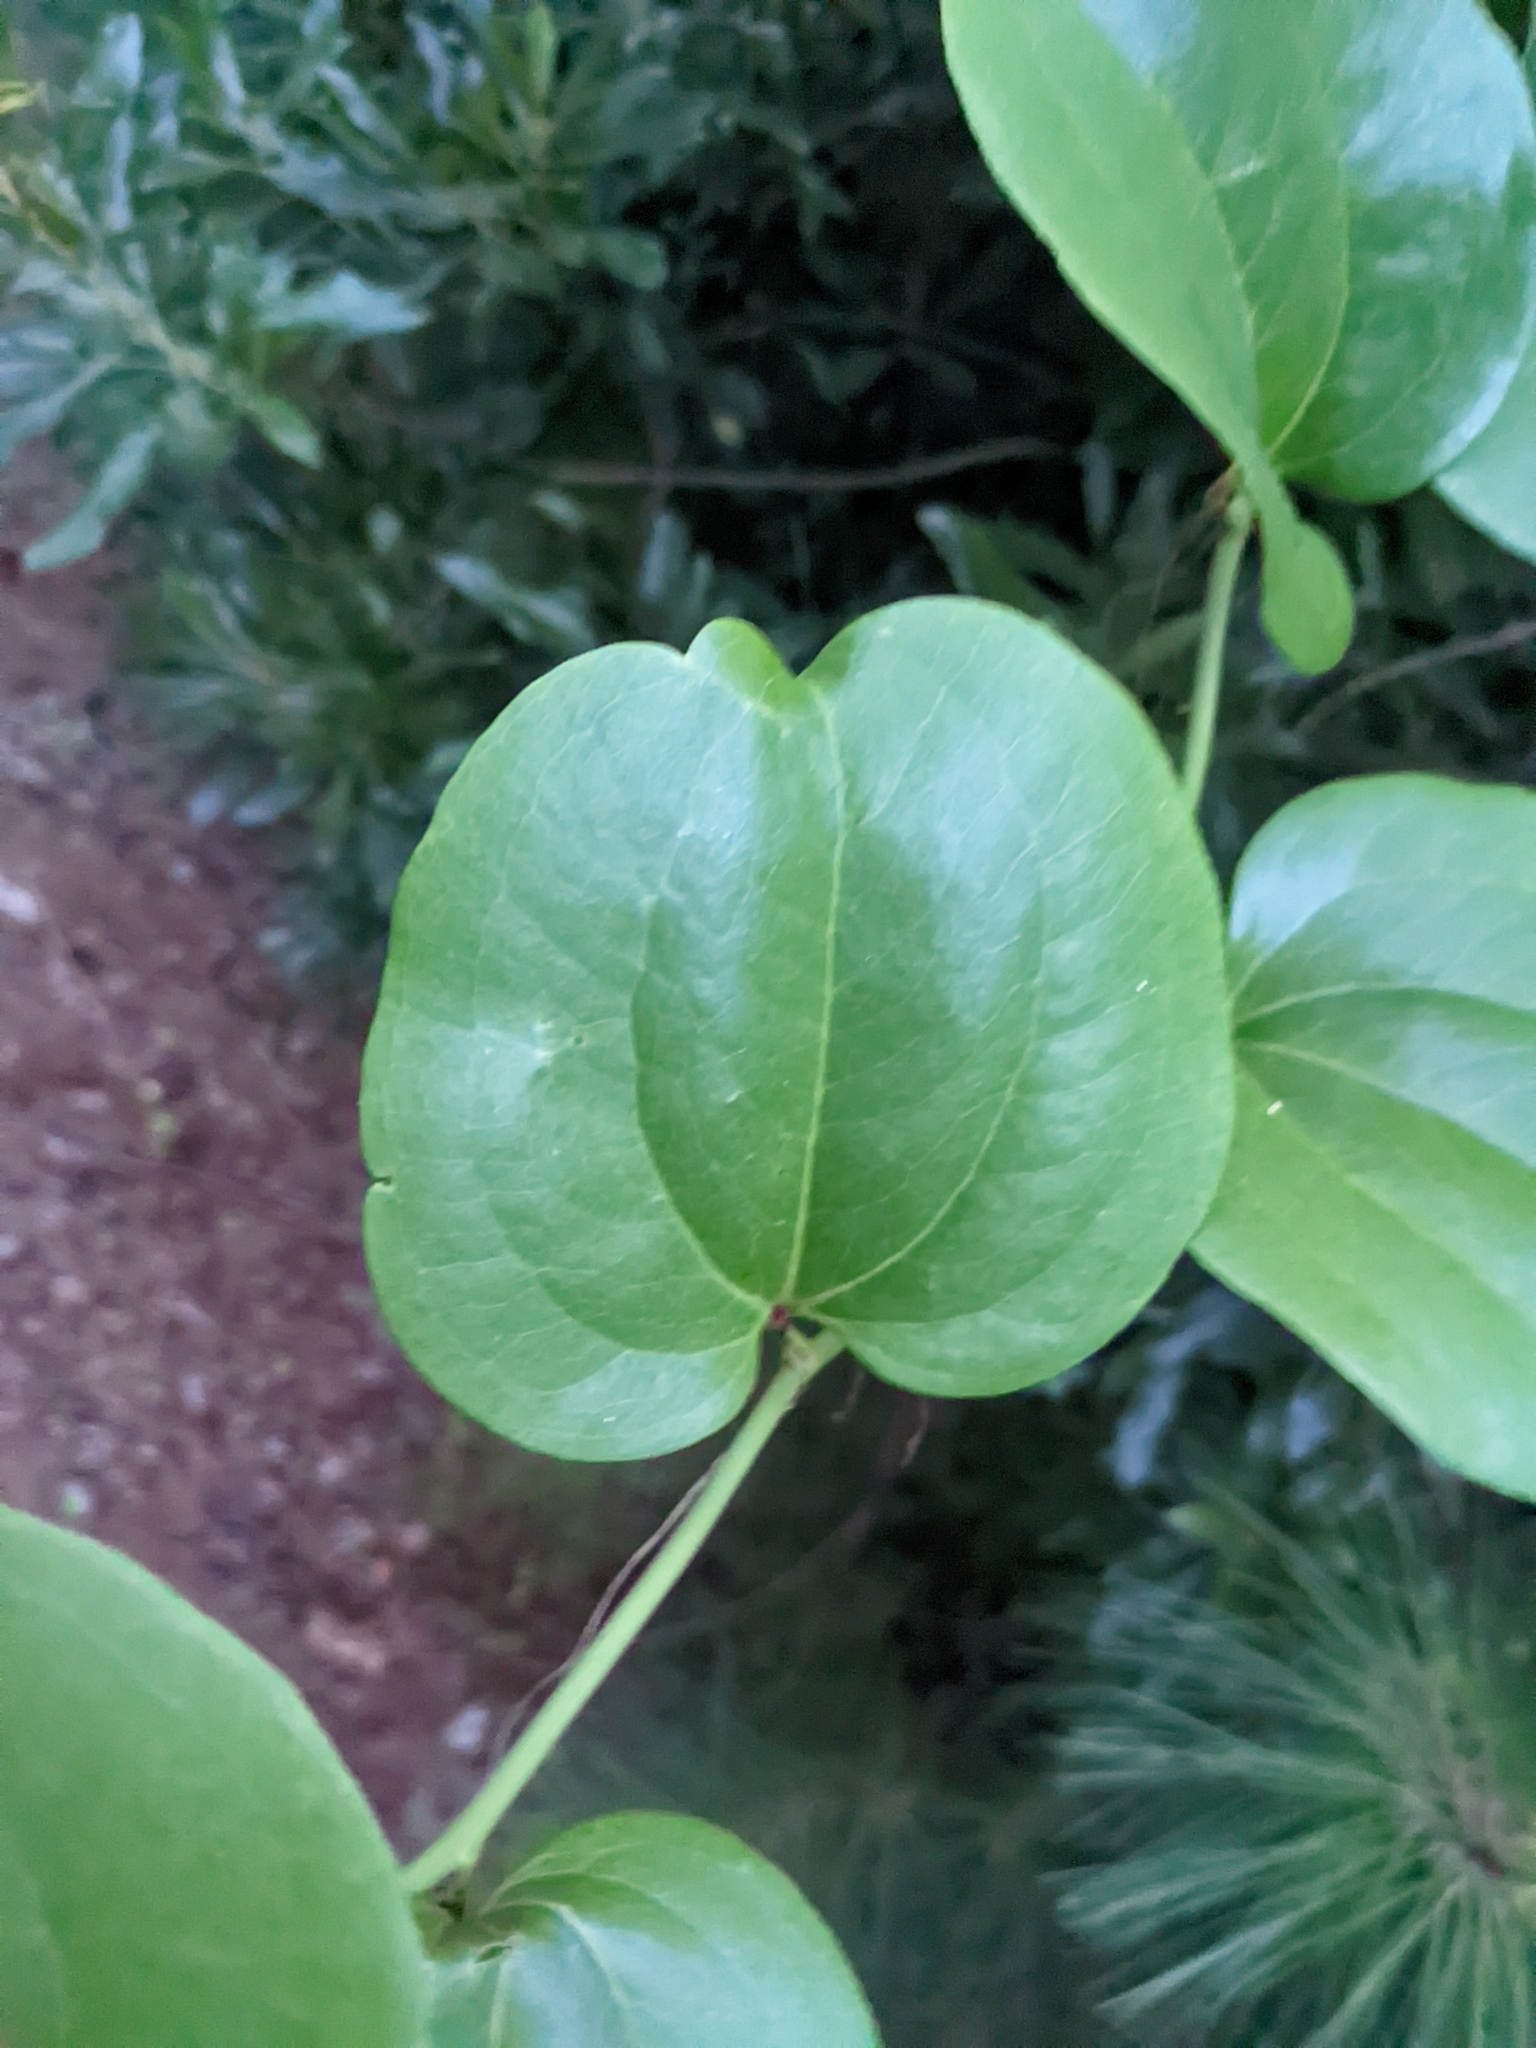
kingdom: Plantae
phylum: Tracheophyta
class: Liliopsida
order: Liliales
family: Smilacaceae
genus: Smilax
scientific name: Smilax rotundifolia
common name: Bullbriar
